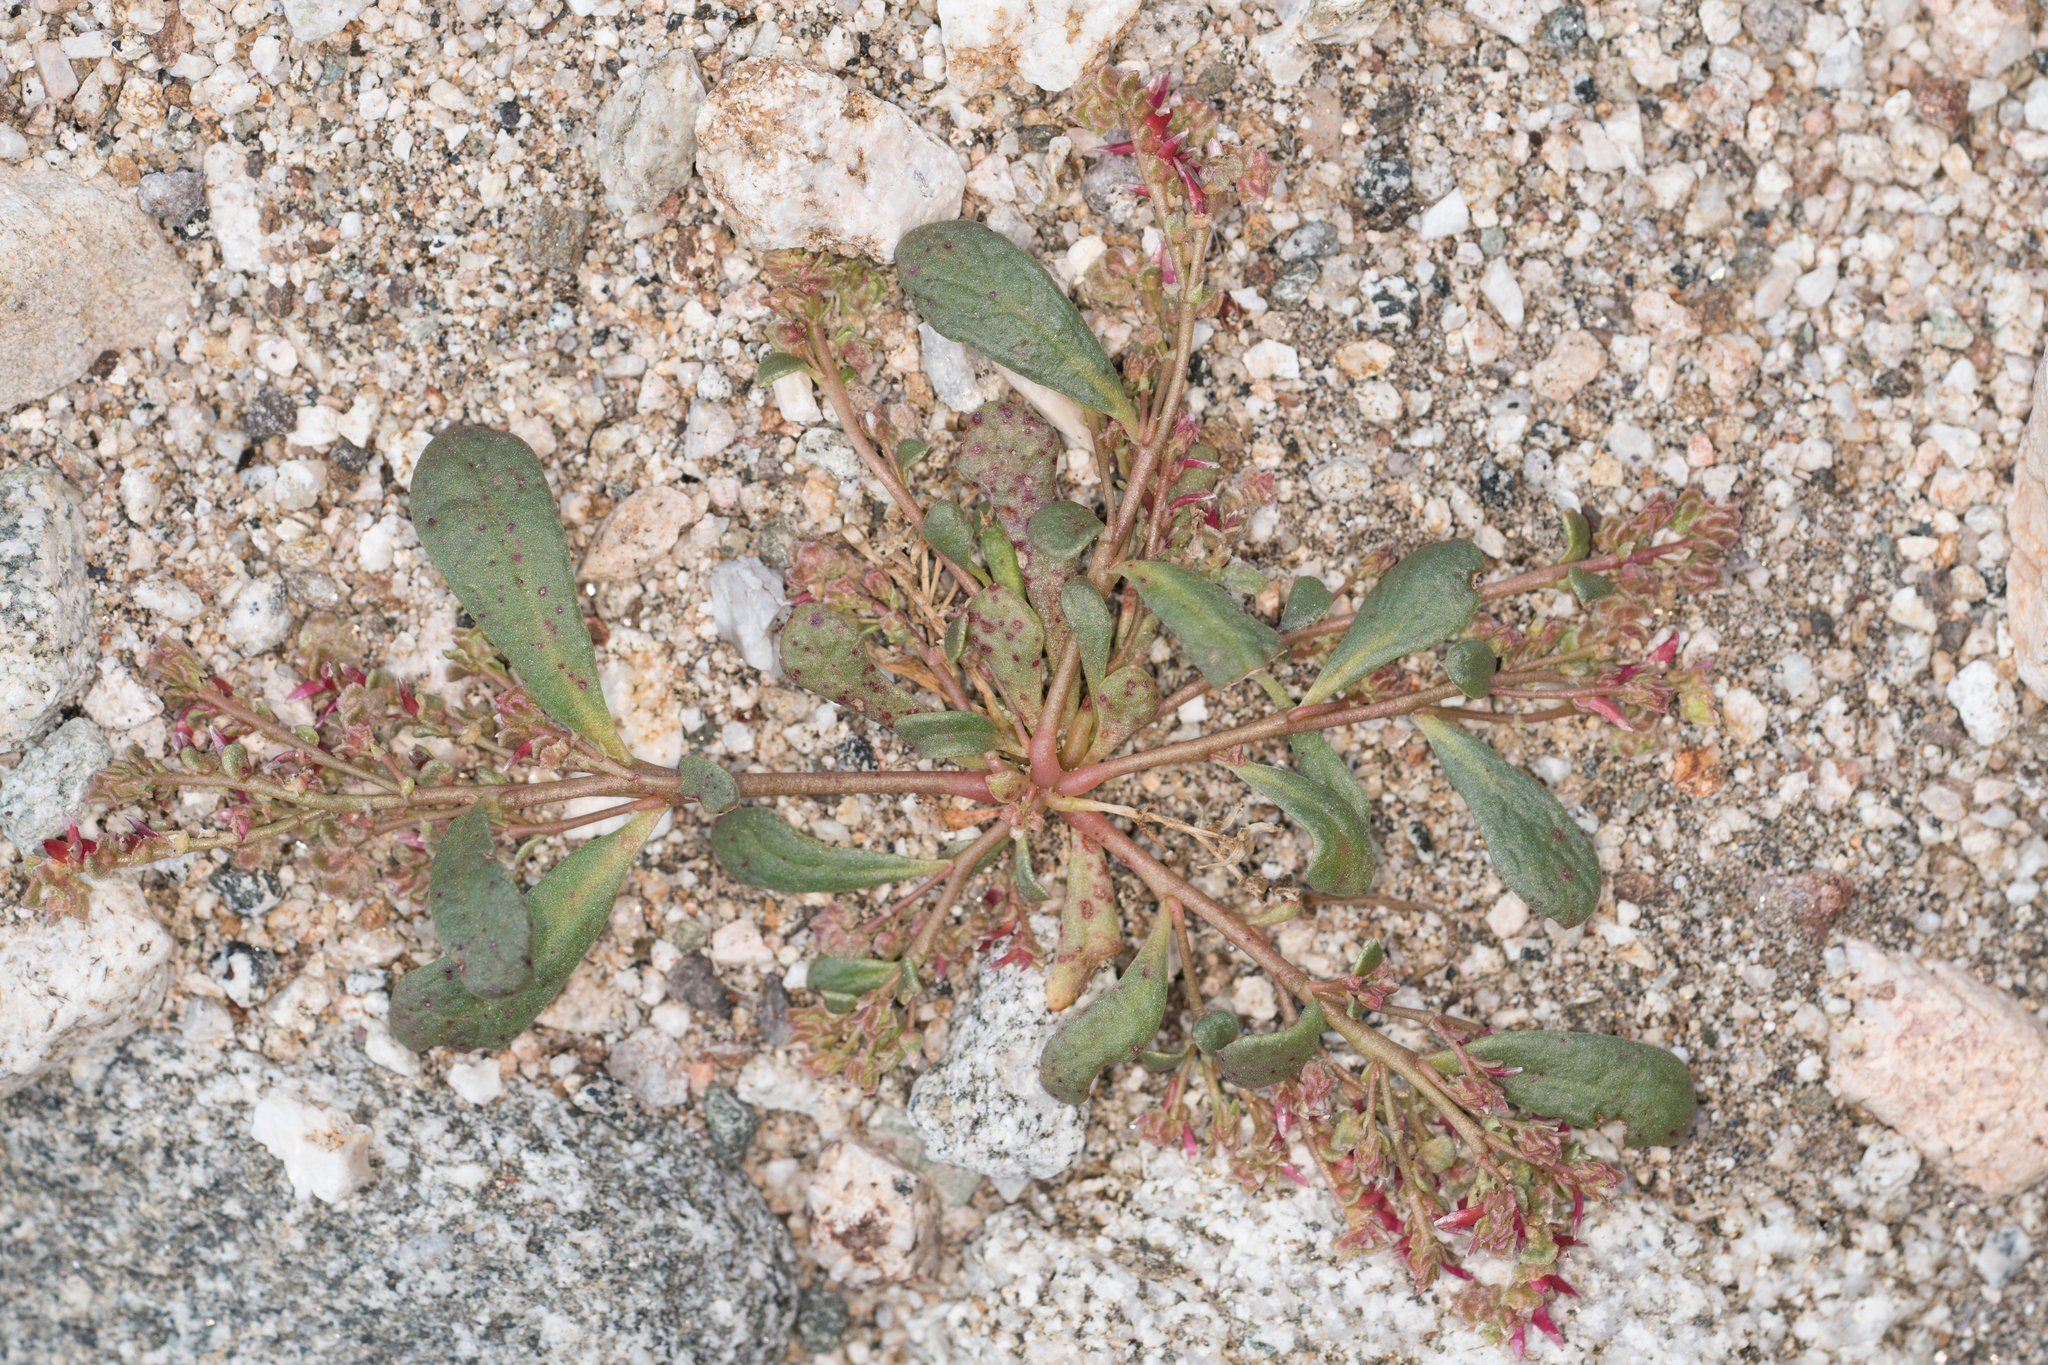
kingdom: Plantae
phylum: Tracheophyta
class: Magnoliopsida
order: Caryophyllales
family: Montiaceae
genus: Calyptridium
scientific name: Calyptridium monandrum
